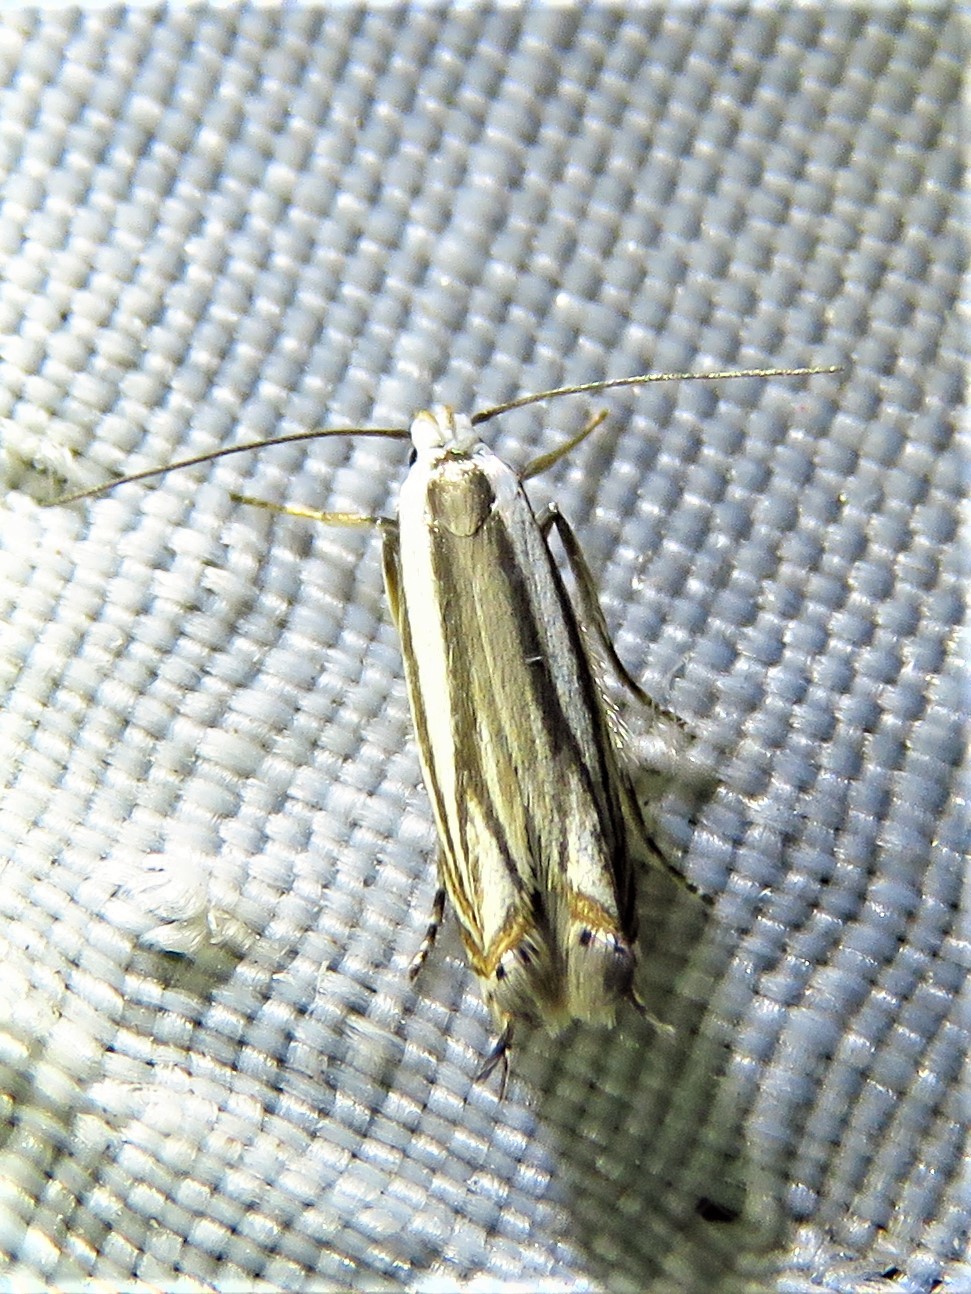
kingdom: Animalia
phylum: Arthropoda
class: Insecta
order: Lepidoptera
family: Gelechiidae
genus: Polyhymno
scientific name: Polyhymno acaciella
